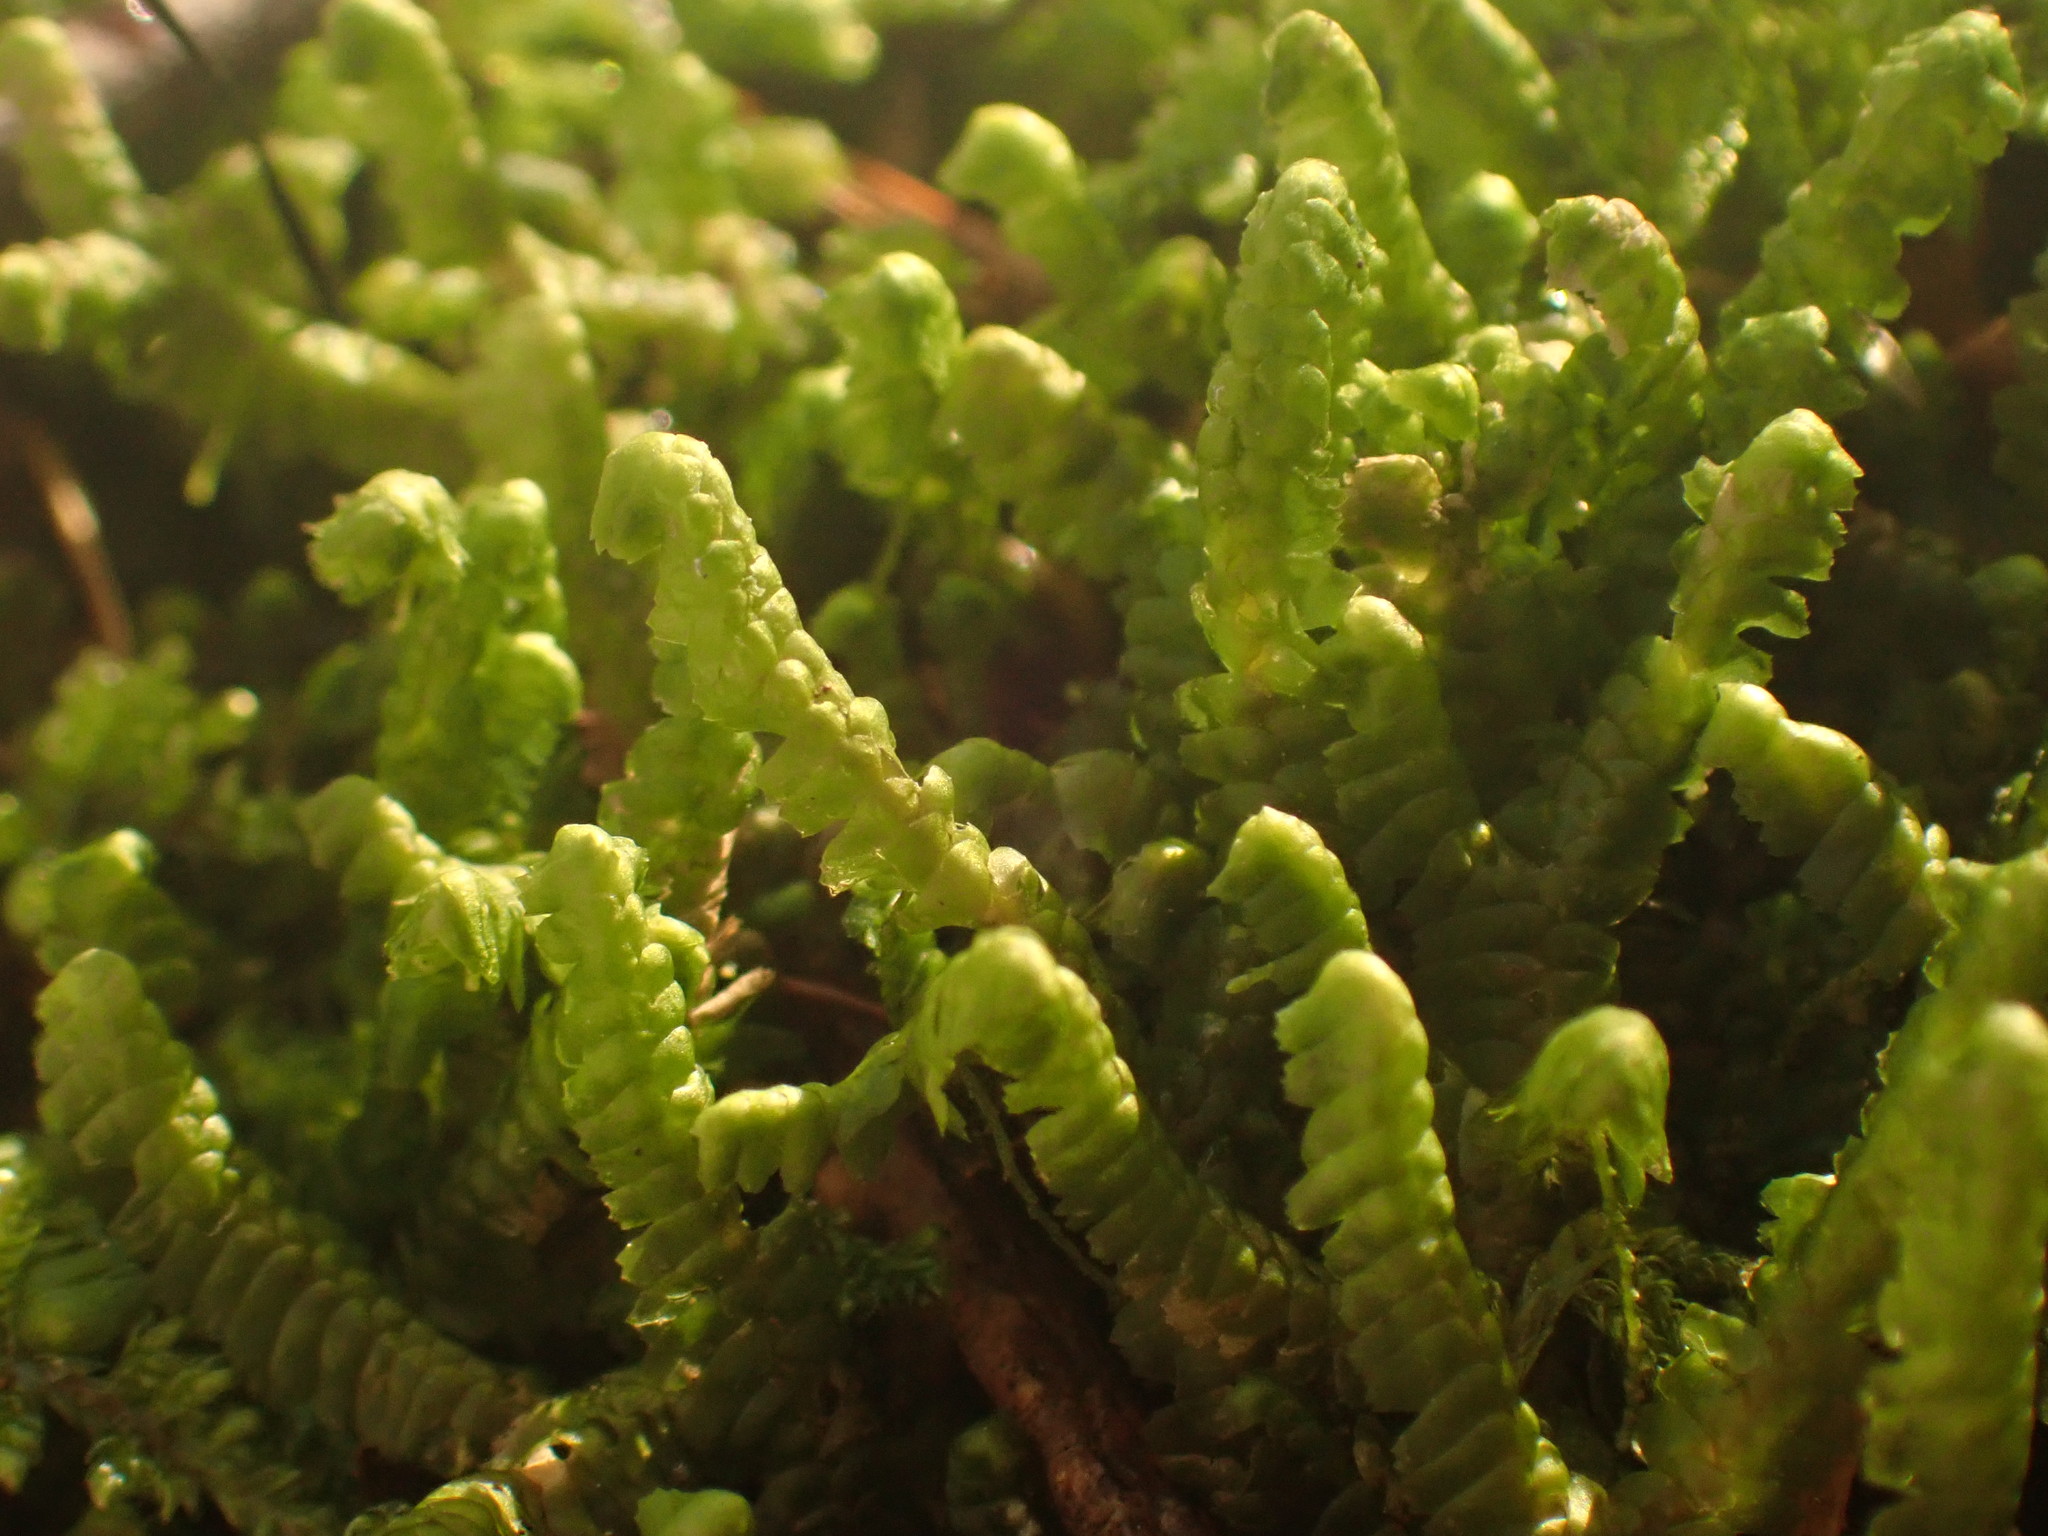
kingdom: Plantae
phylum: Marchantiophyta
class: Jungermanniopsida
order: Jungermanniales
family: Lepidoziaceae
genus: Bazzania
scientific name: Bazzania trilobata
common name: Three-lobed whipwort
